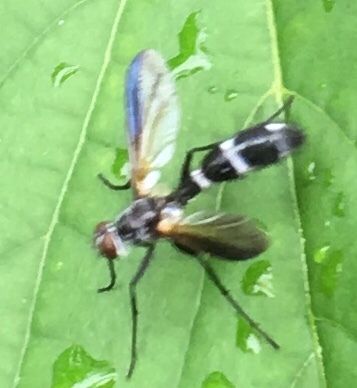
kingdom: Animalia
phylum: Arthropoda
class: Insecta
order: Diptera
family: Tachinidae
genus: Cordyligaster
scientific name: Cordyligaster septentrionalis
